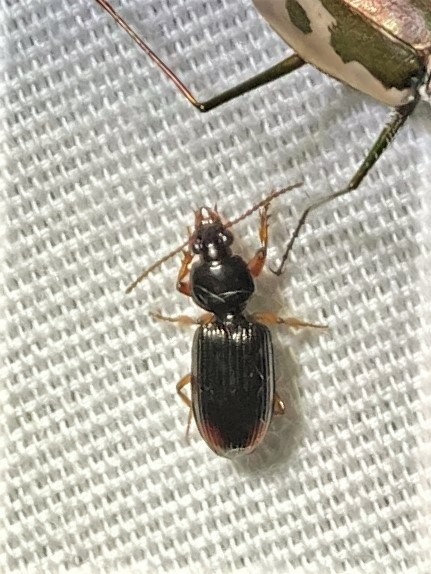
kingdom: Animalia
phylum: Arthropoda
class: Insecta
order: Coleoptera
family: Carabidae
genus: Aspidoglossa
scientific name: Aspidoglossa subangulata
